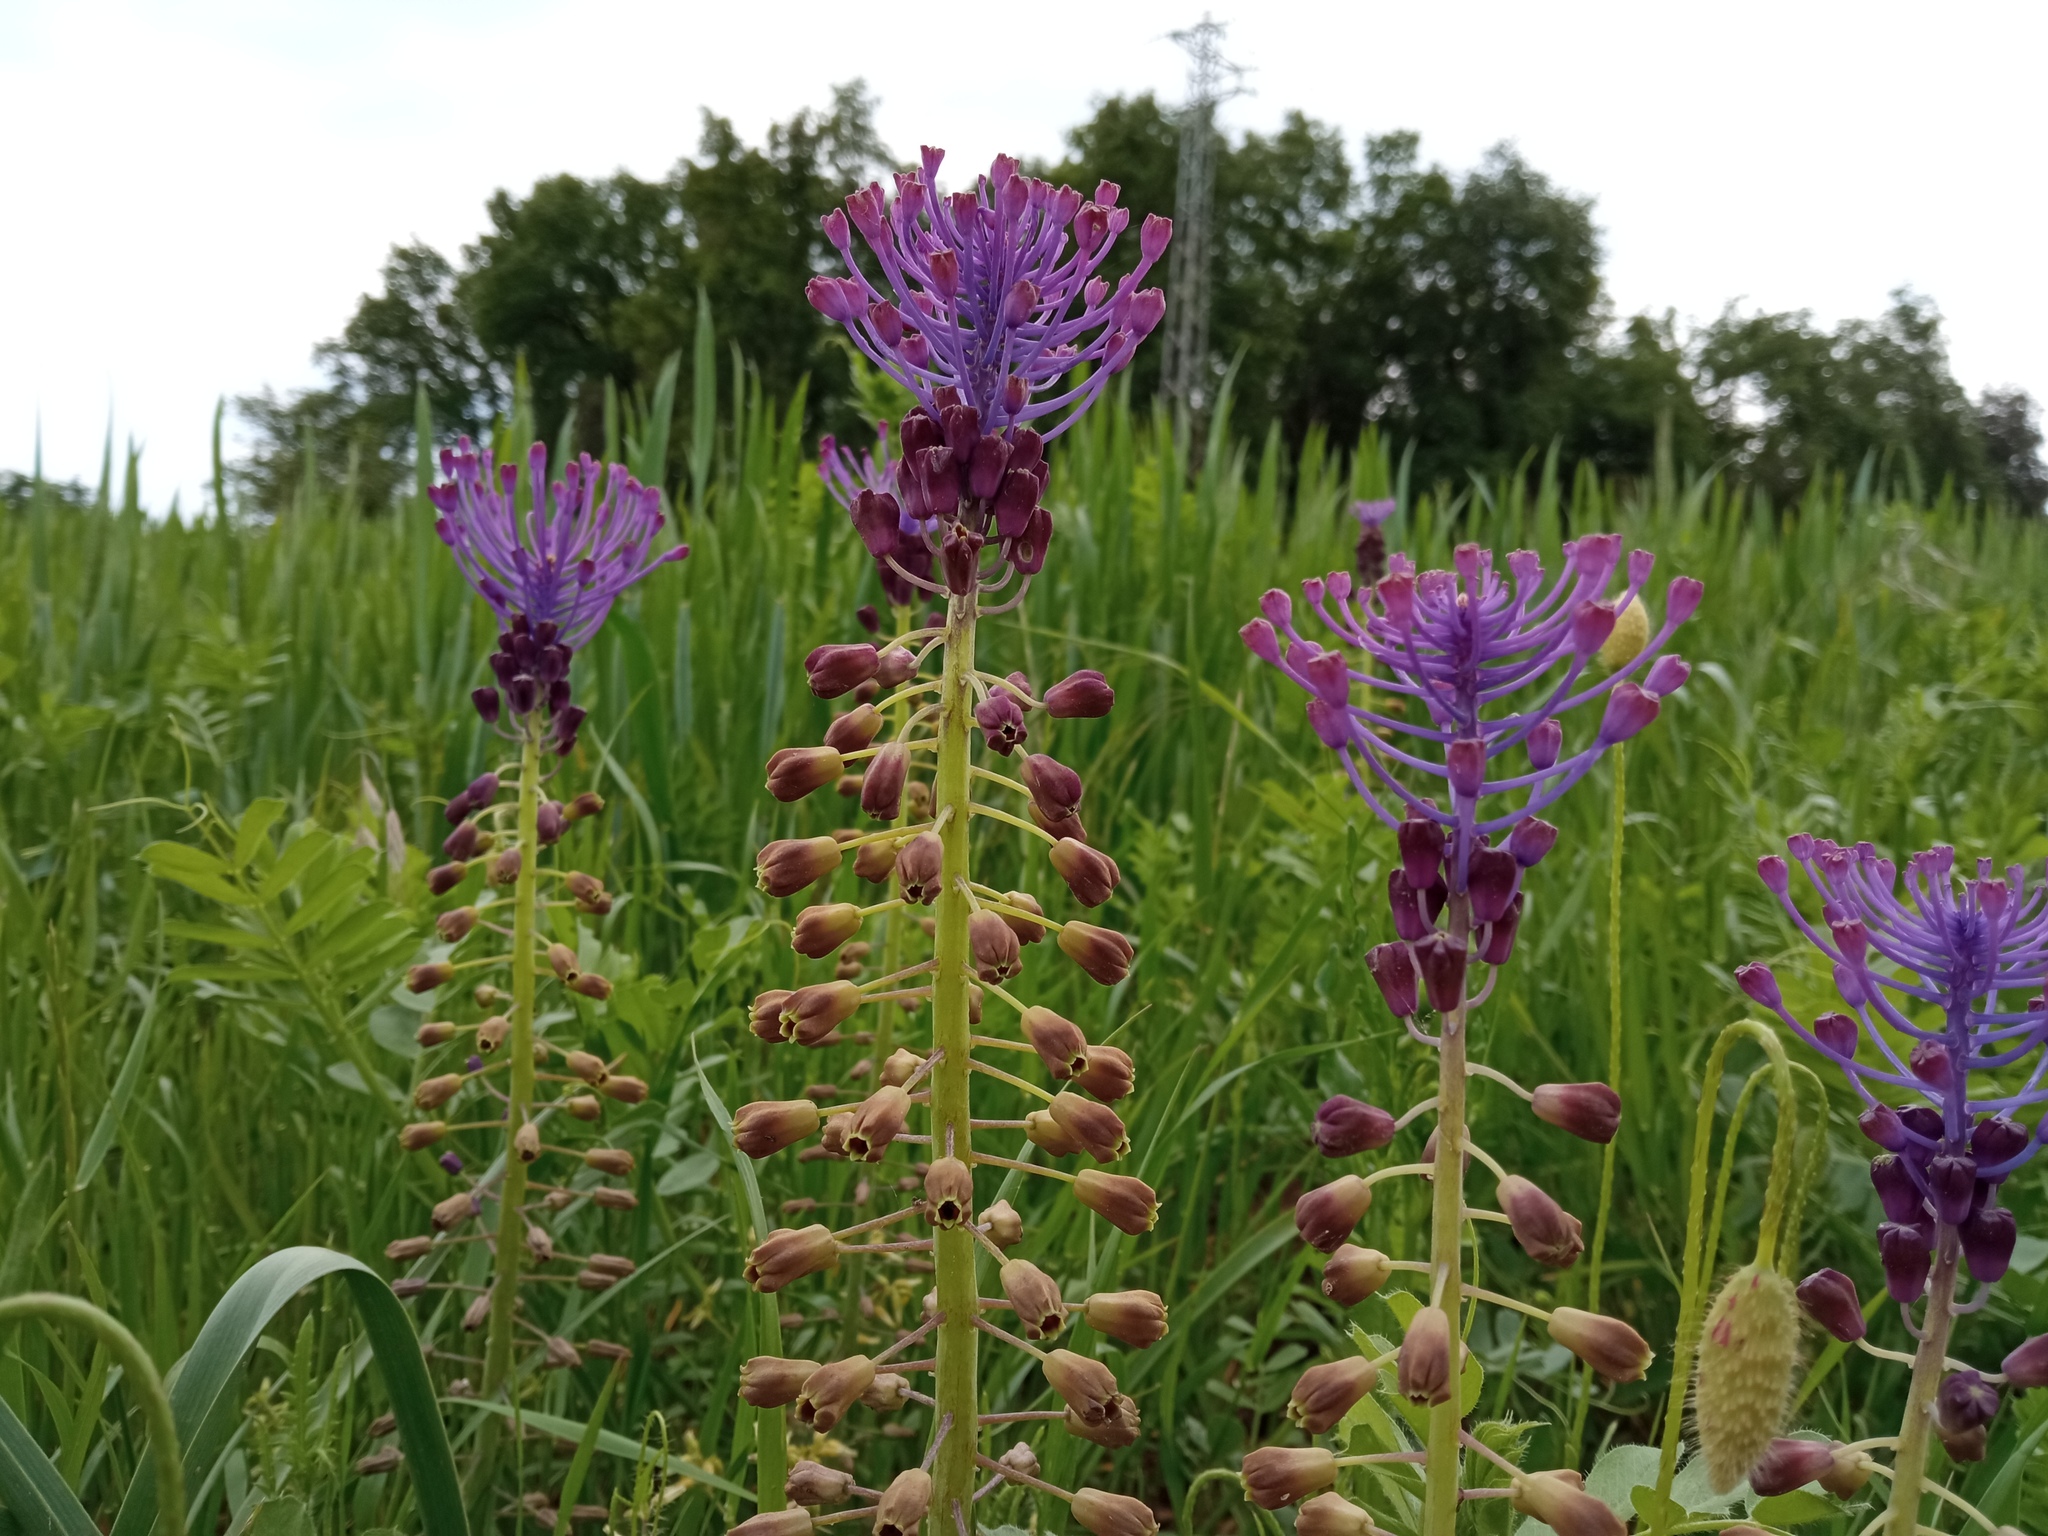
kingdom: Plantae
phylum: Tracheophyta
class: Liliopsida
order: Asparagales
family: Asparagaceae
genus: Muscari
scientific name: Muscari comosum
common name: Tassel hyacinth
